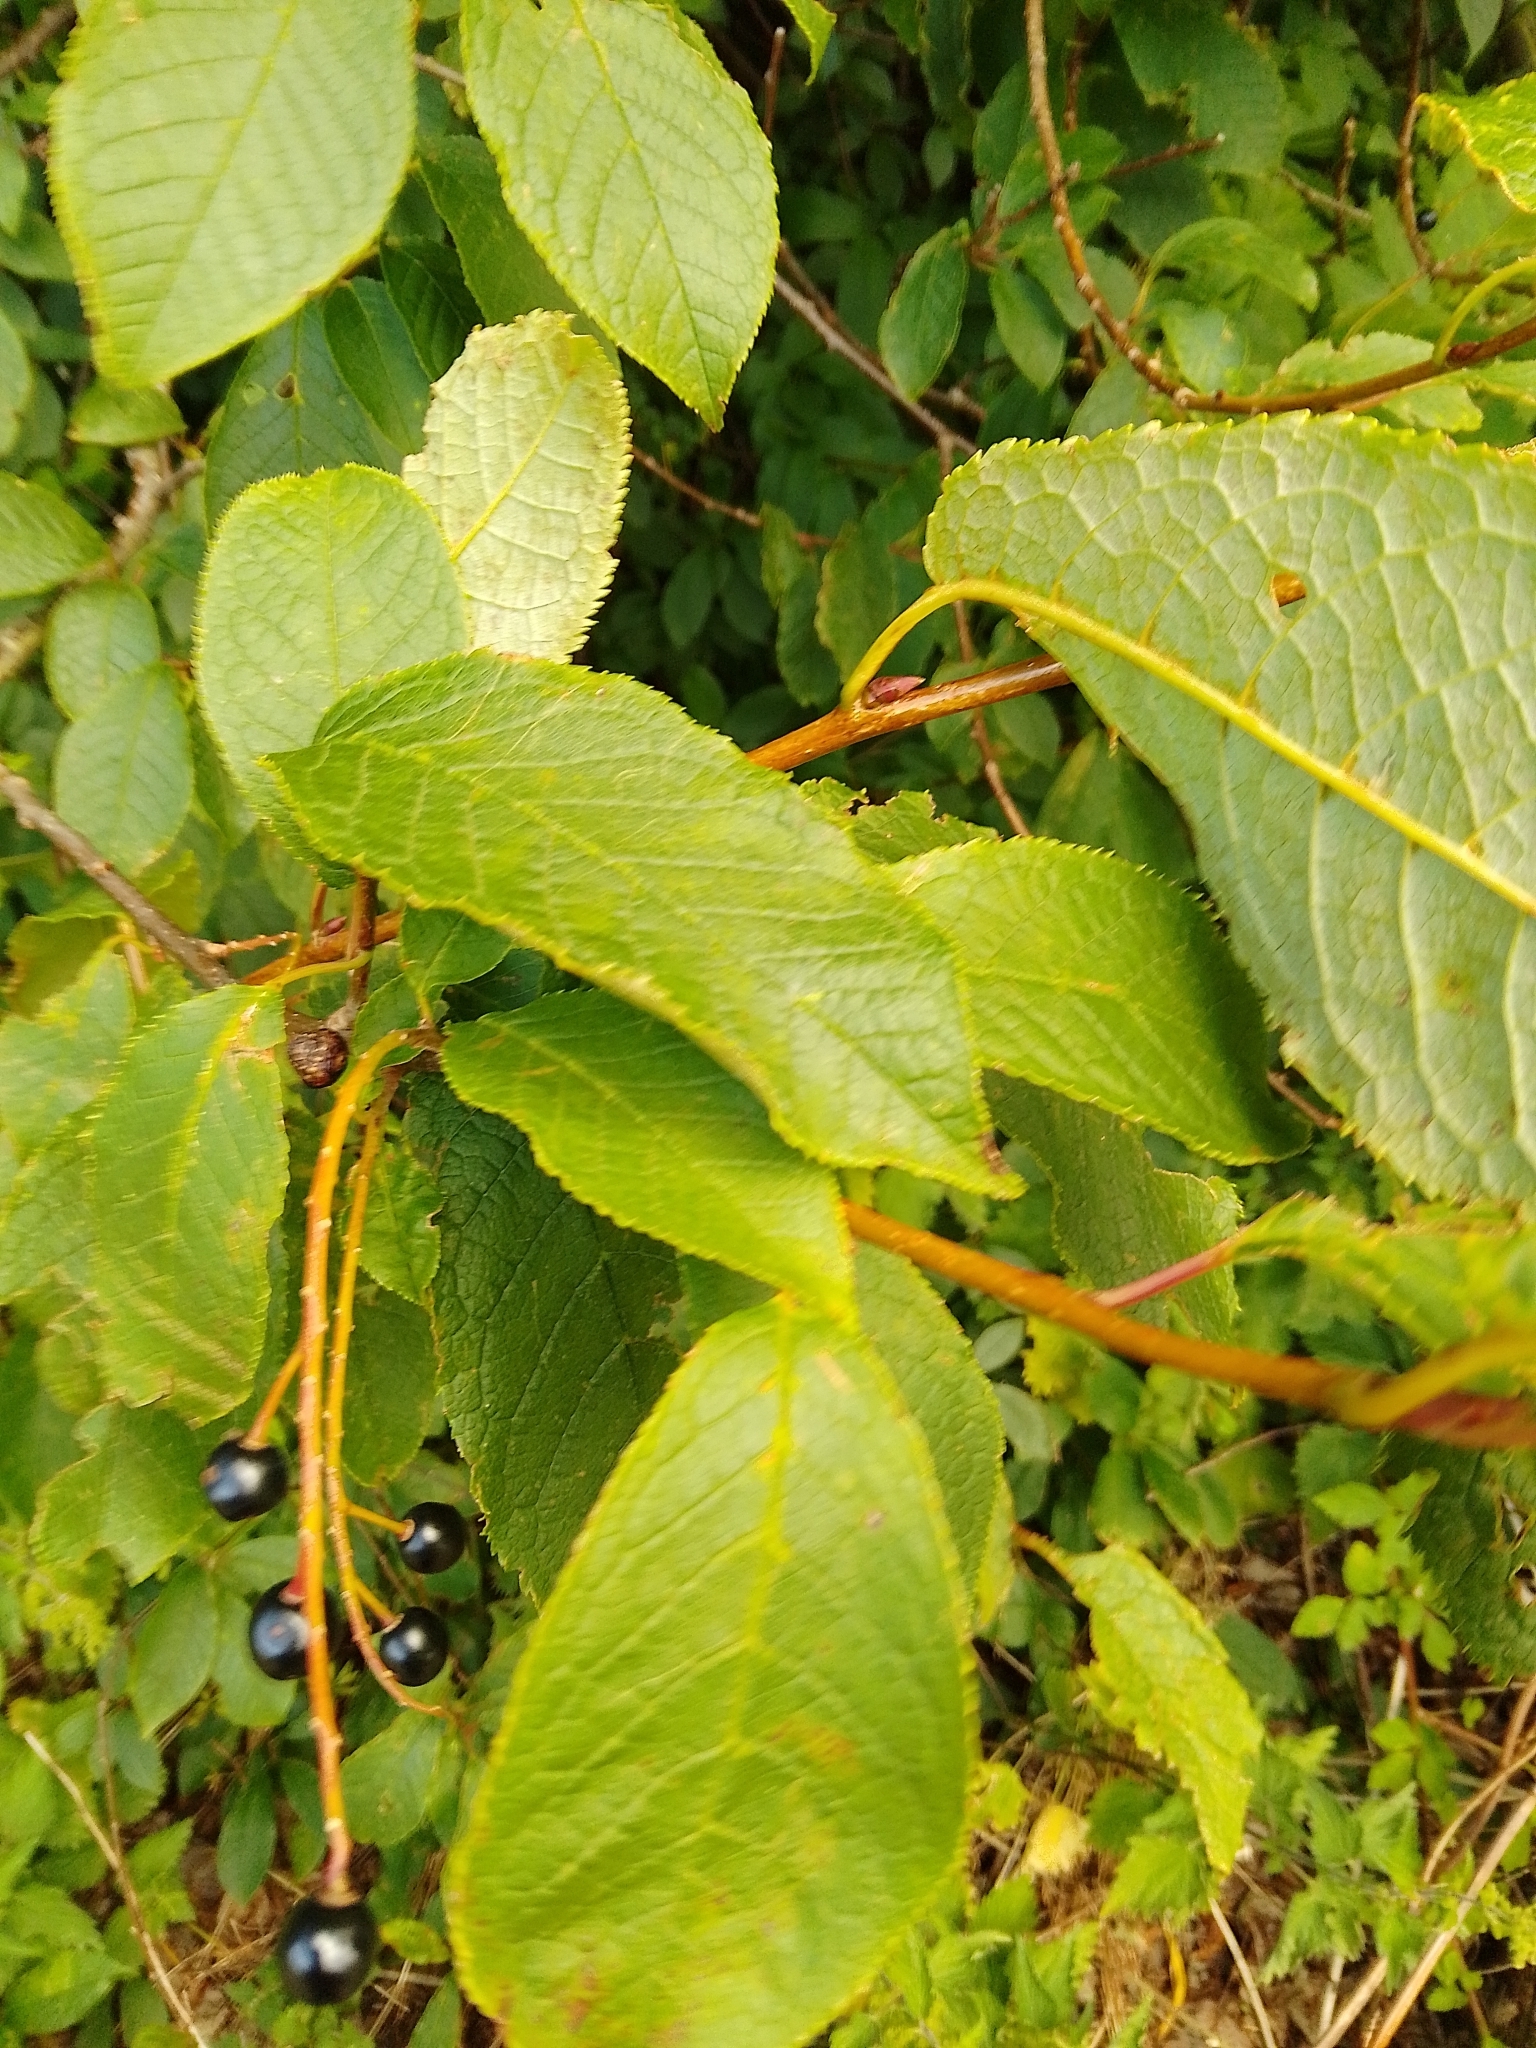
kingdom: Plantae
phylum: Tracheophyta
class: Magnoliopsida
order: Rosales
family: Rosaceae
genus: Prunus
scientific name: Prunus padus
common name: Bird cherry
